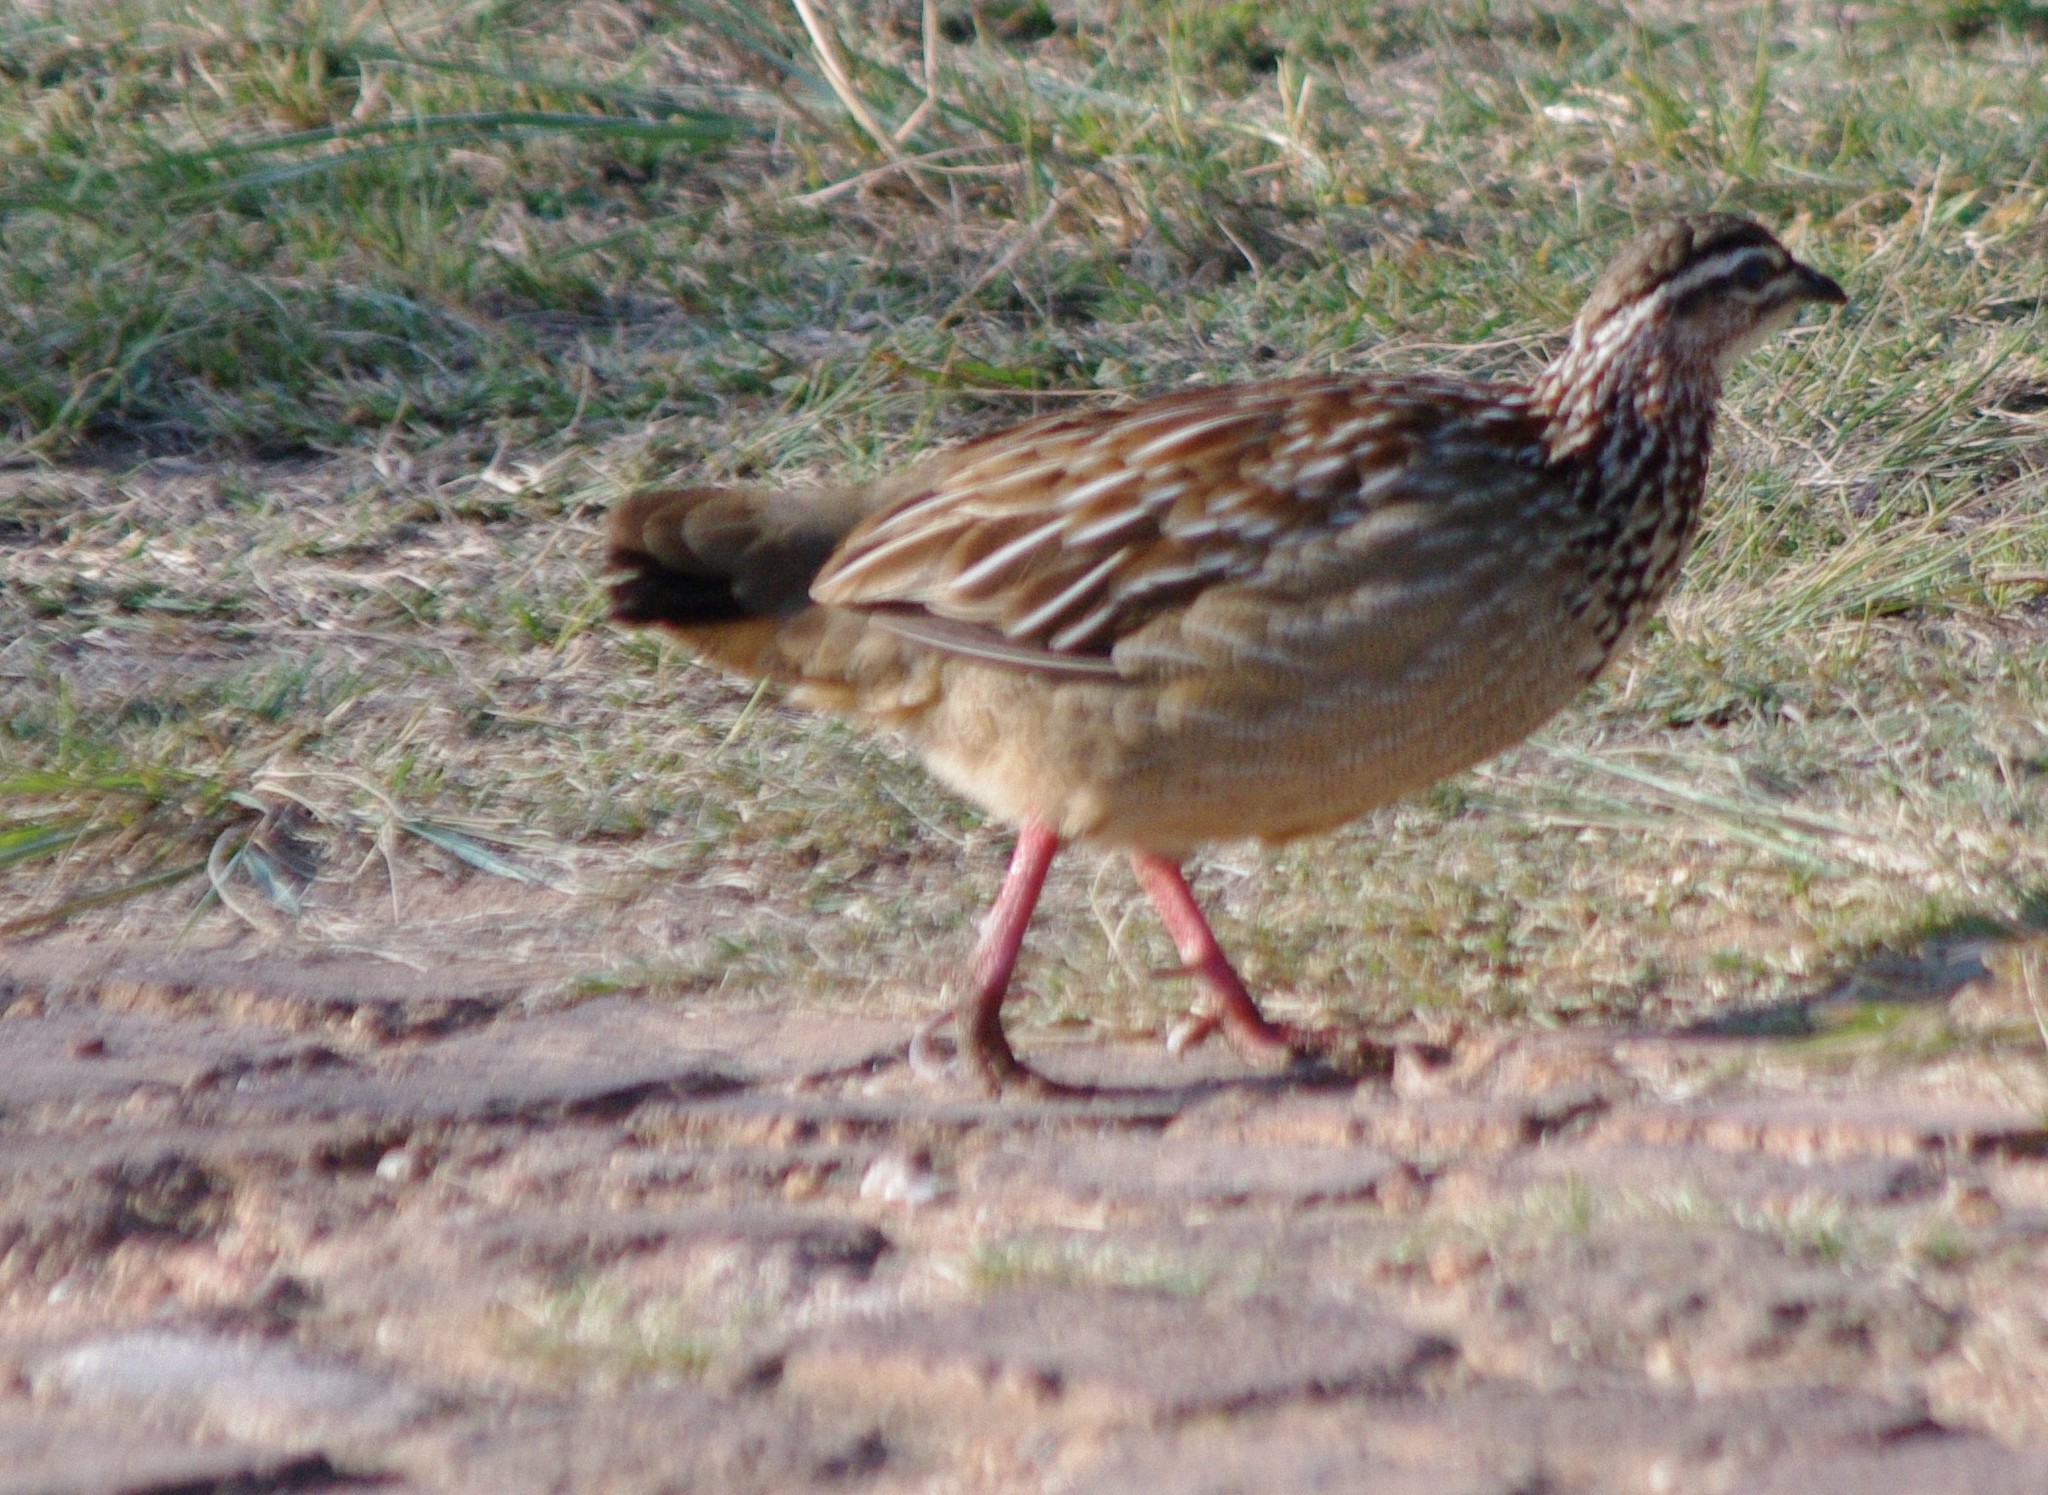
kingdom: Animalia
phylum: Chordata
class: Aves
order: Galliformes
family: Phasianidae
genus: Ortygornis
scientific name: Ortygornis sephaena
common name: Crested francolin
